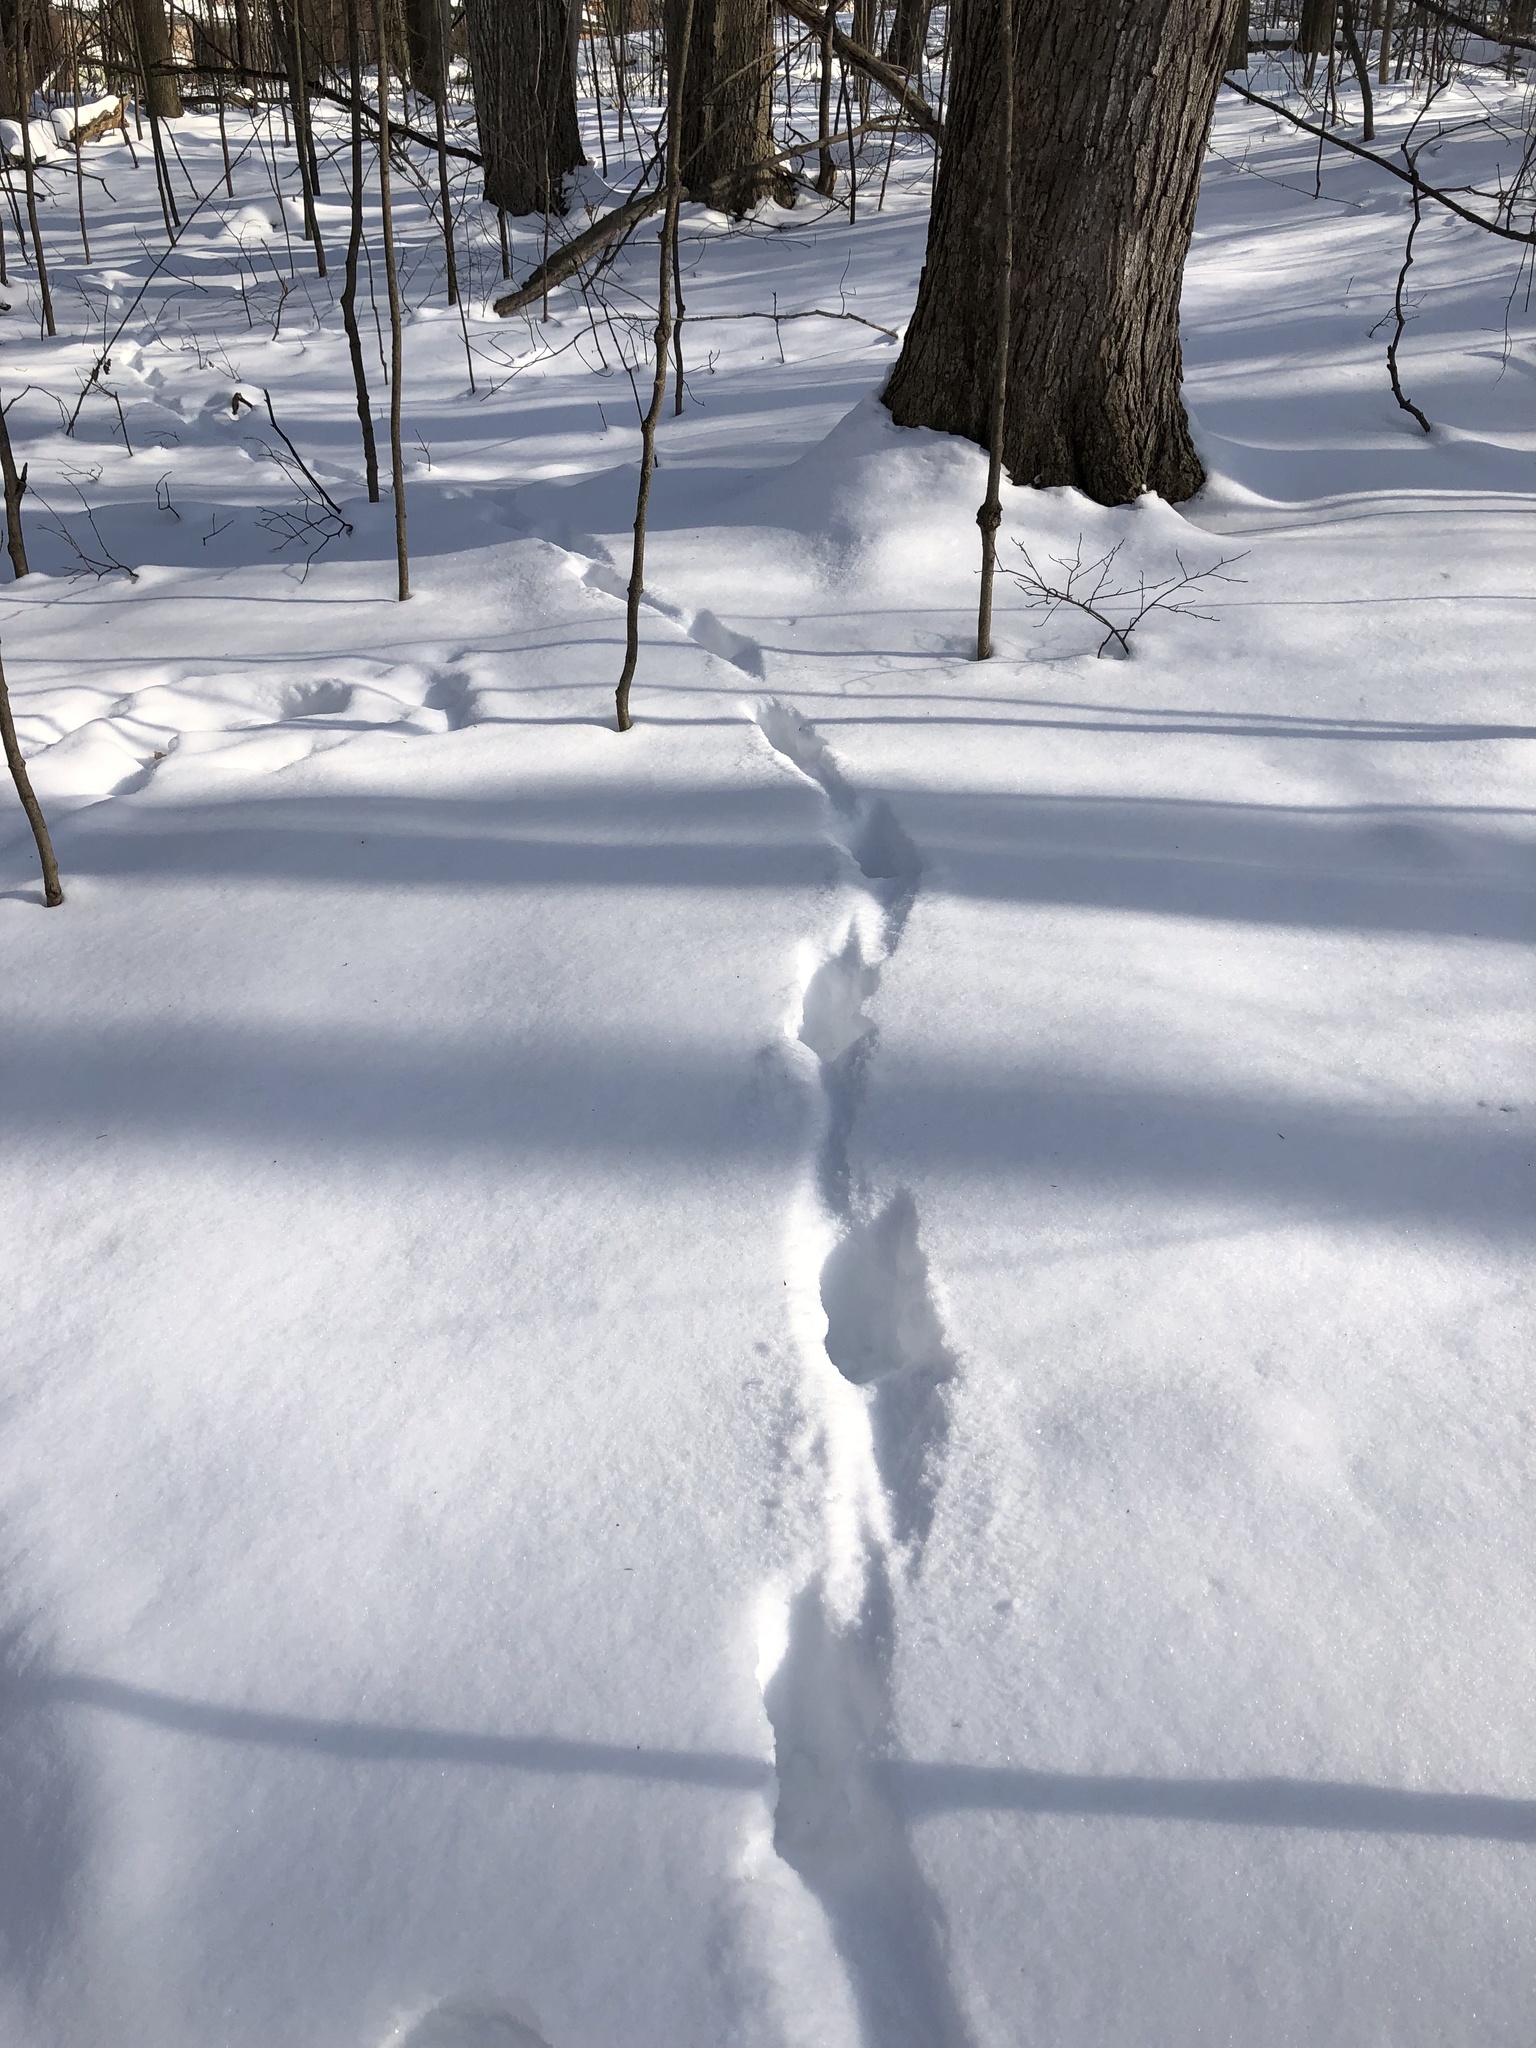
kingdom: Animalia
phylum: Chordata
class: Mammalia
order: Artiodactyla
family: Cervidae
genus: Odocoileus
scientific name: Odocoileus virginianus
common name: White-tailed deer
